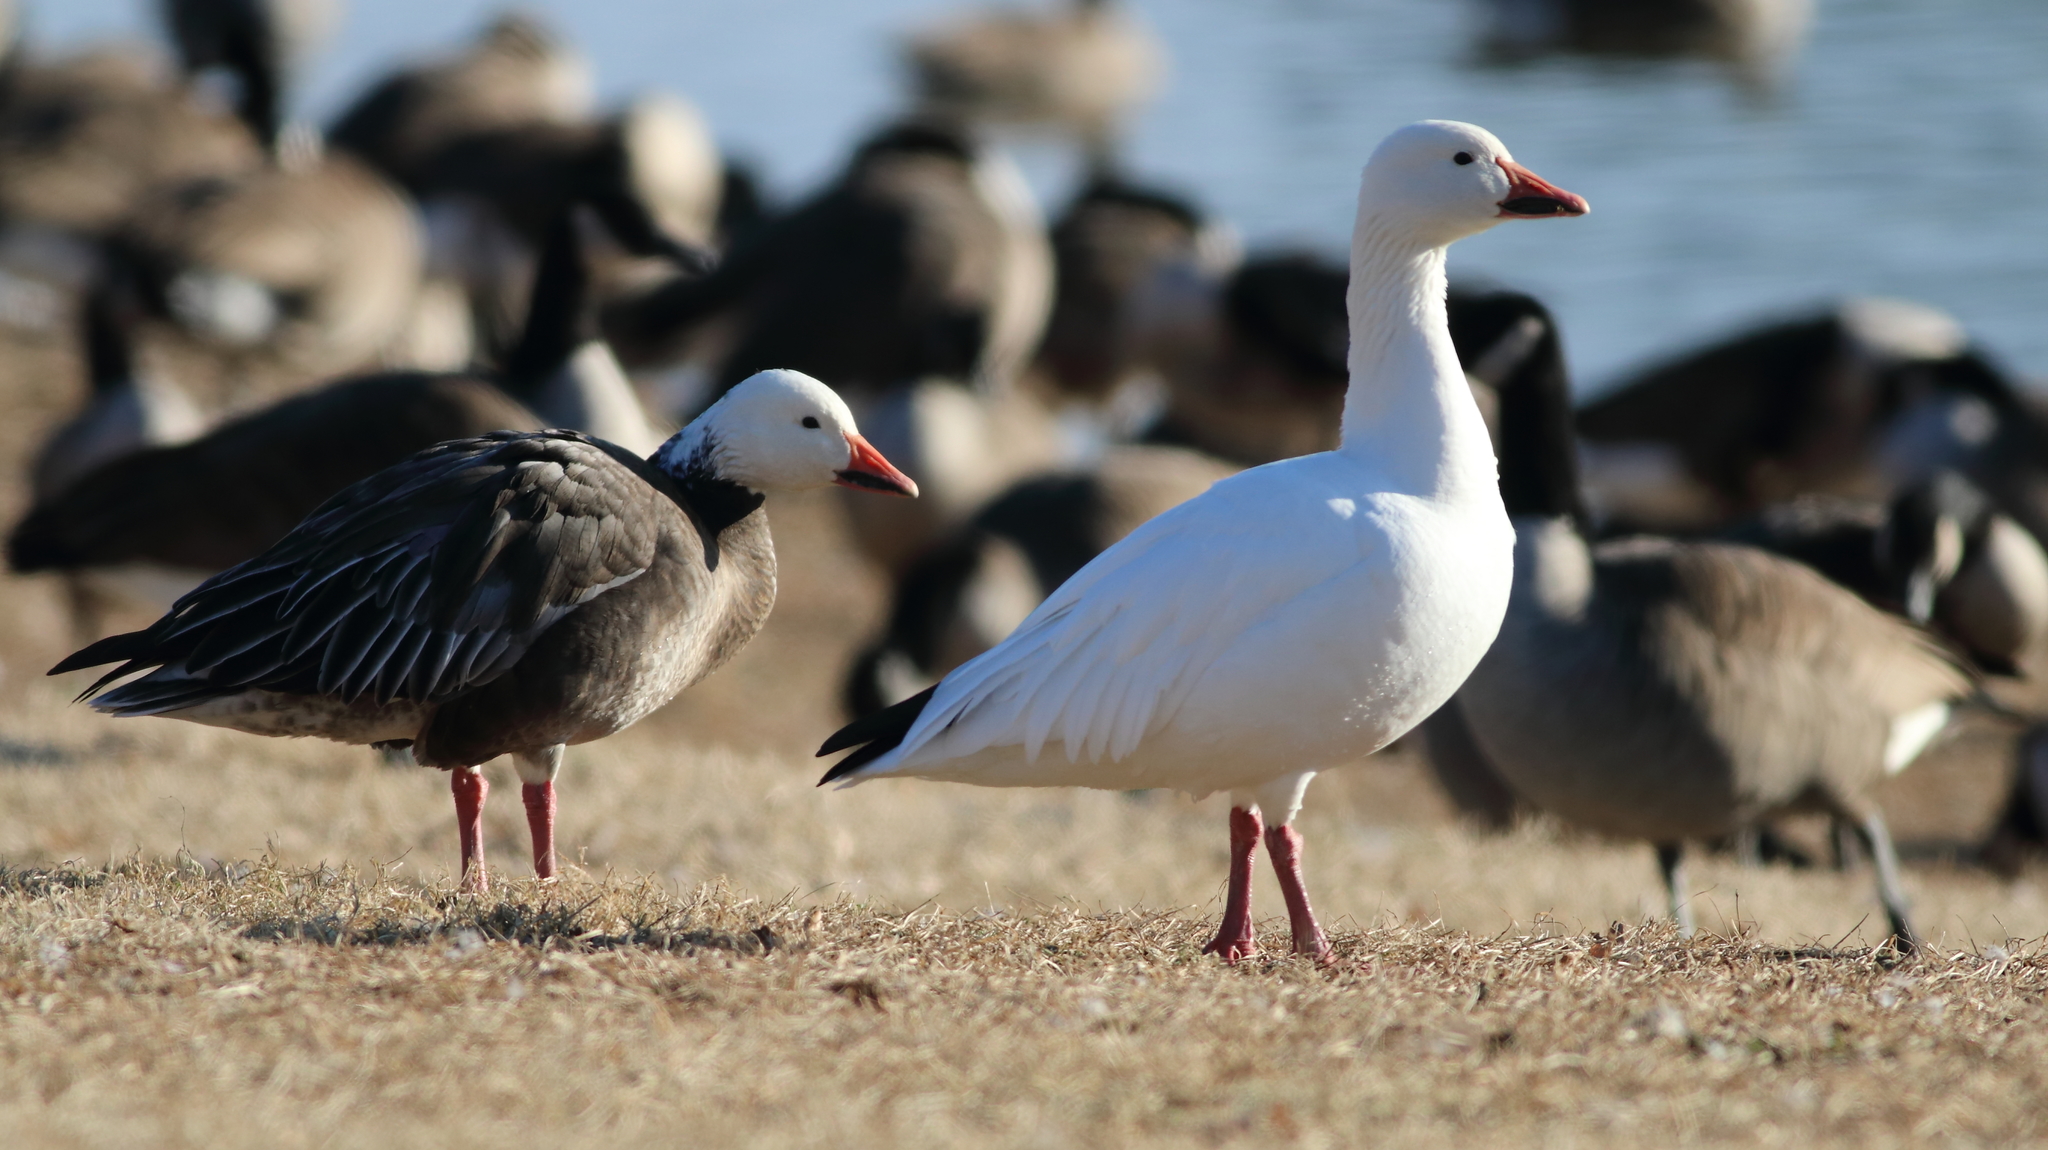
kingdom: Animalia
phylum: Chordata
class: Aves
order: Anseriformes
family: Anatidae
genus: Anser
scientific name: Anser caerulescens
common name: Snow goose
